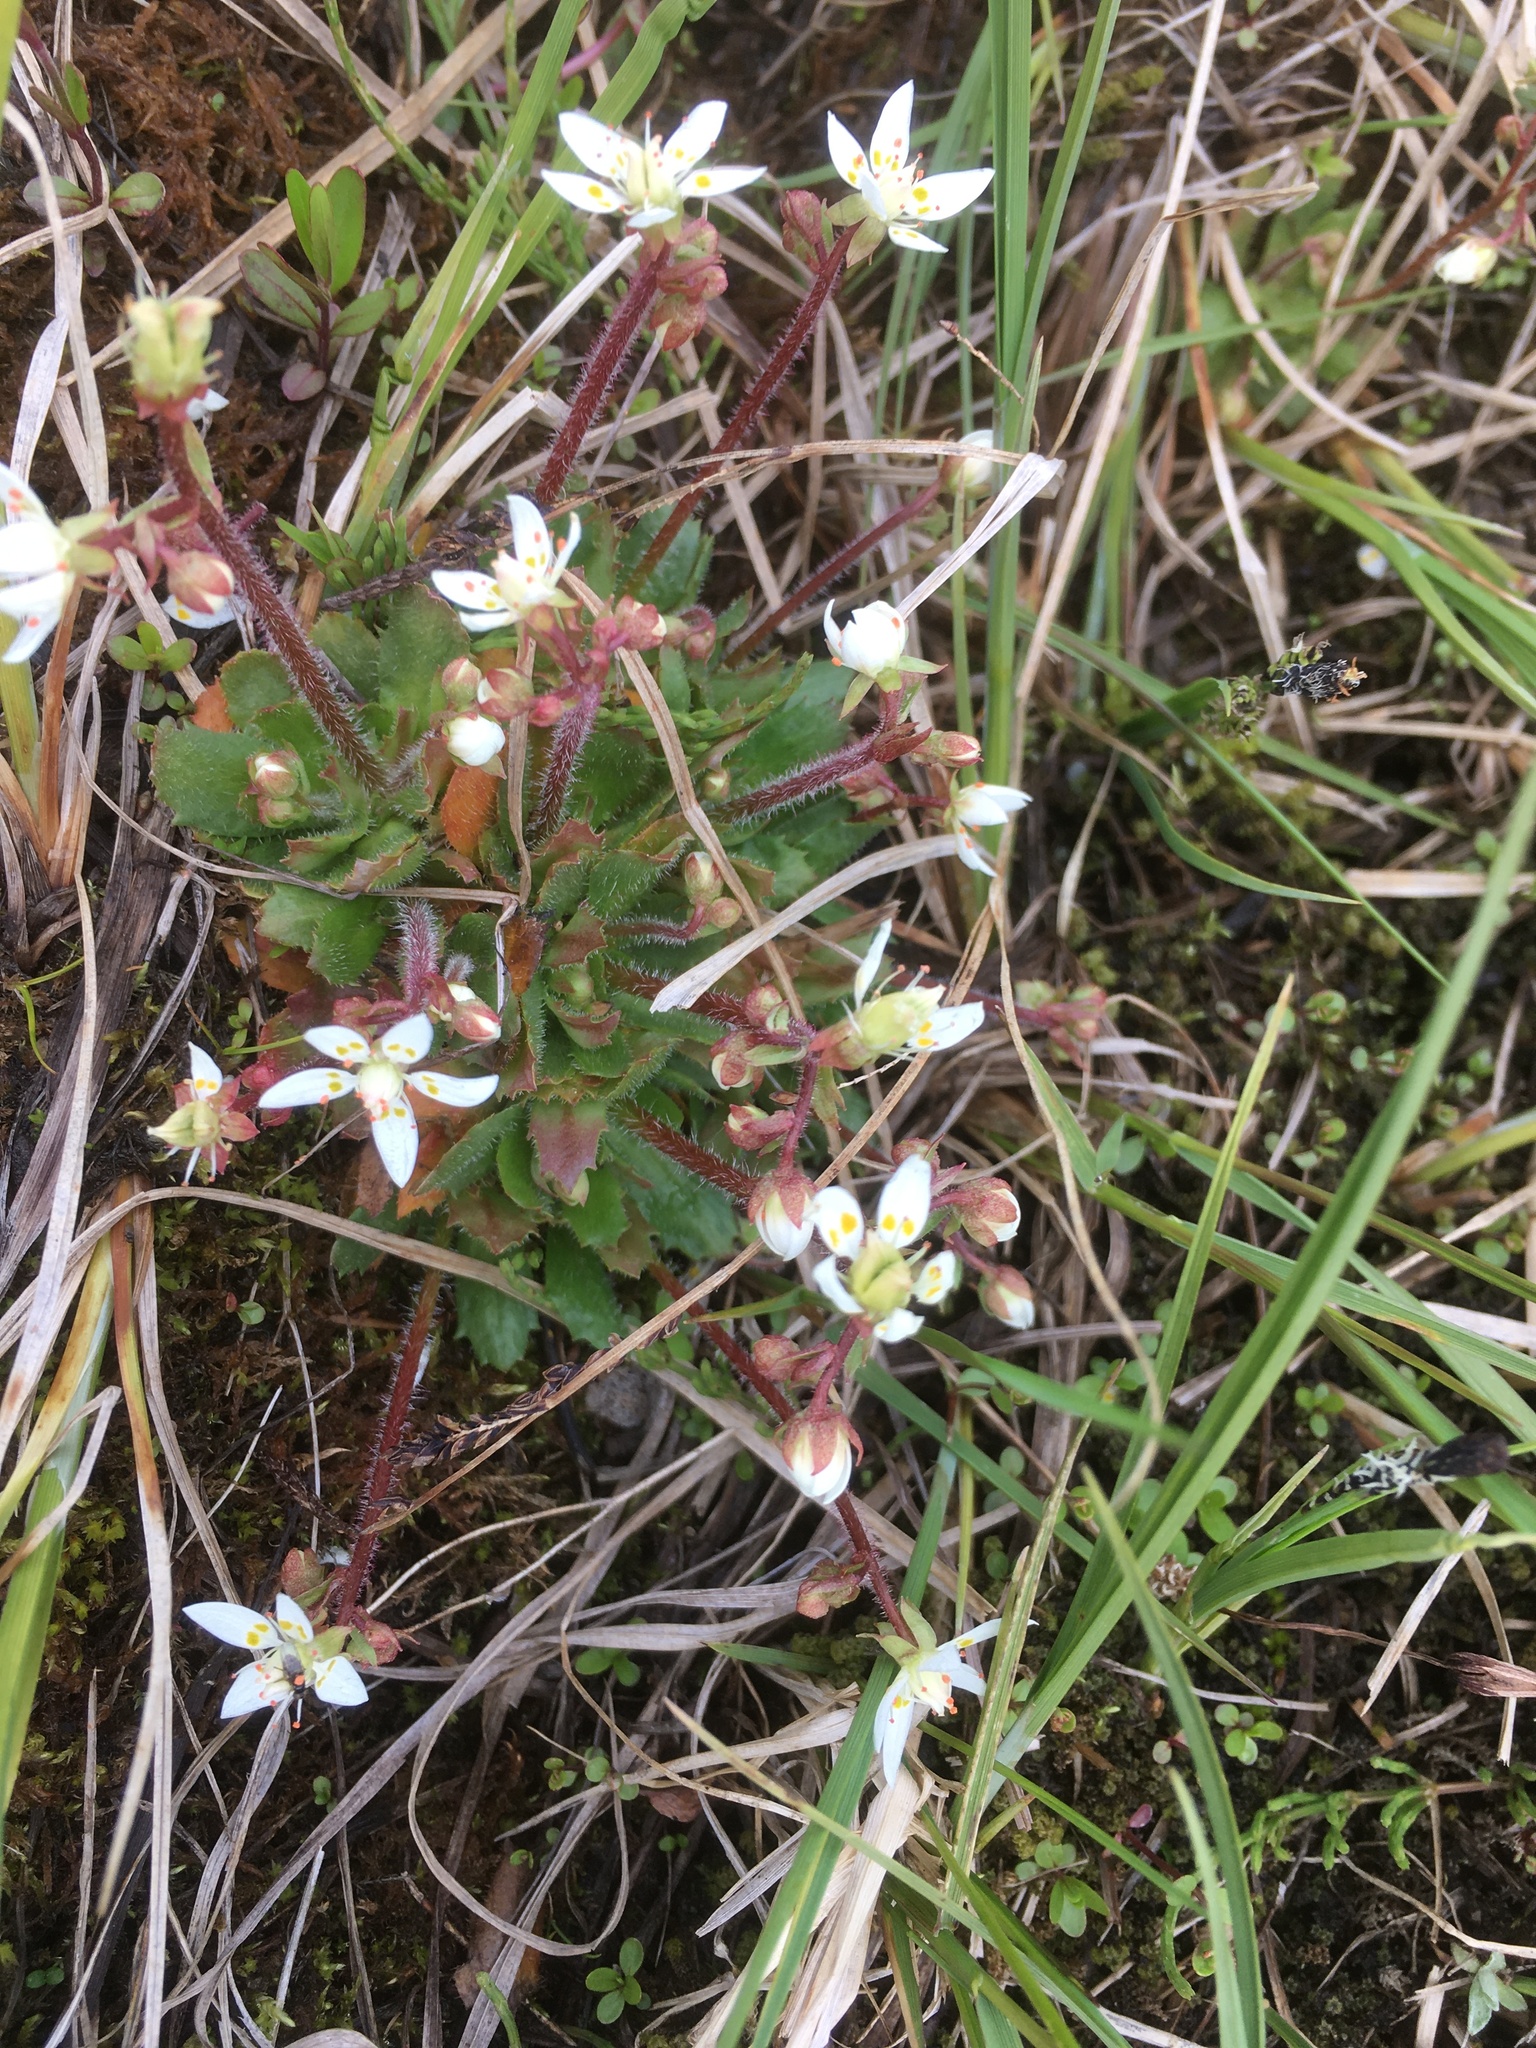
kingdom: Plantae
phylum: Tracheophyta
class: Magnoliopsida
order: Saxifragales
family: Saxifragaceae
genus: Micranthes
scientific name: Micranthes stellaris
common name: Starry saxifrage
